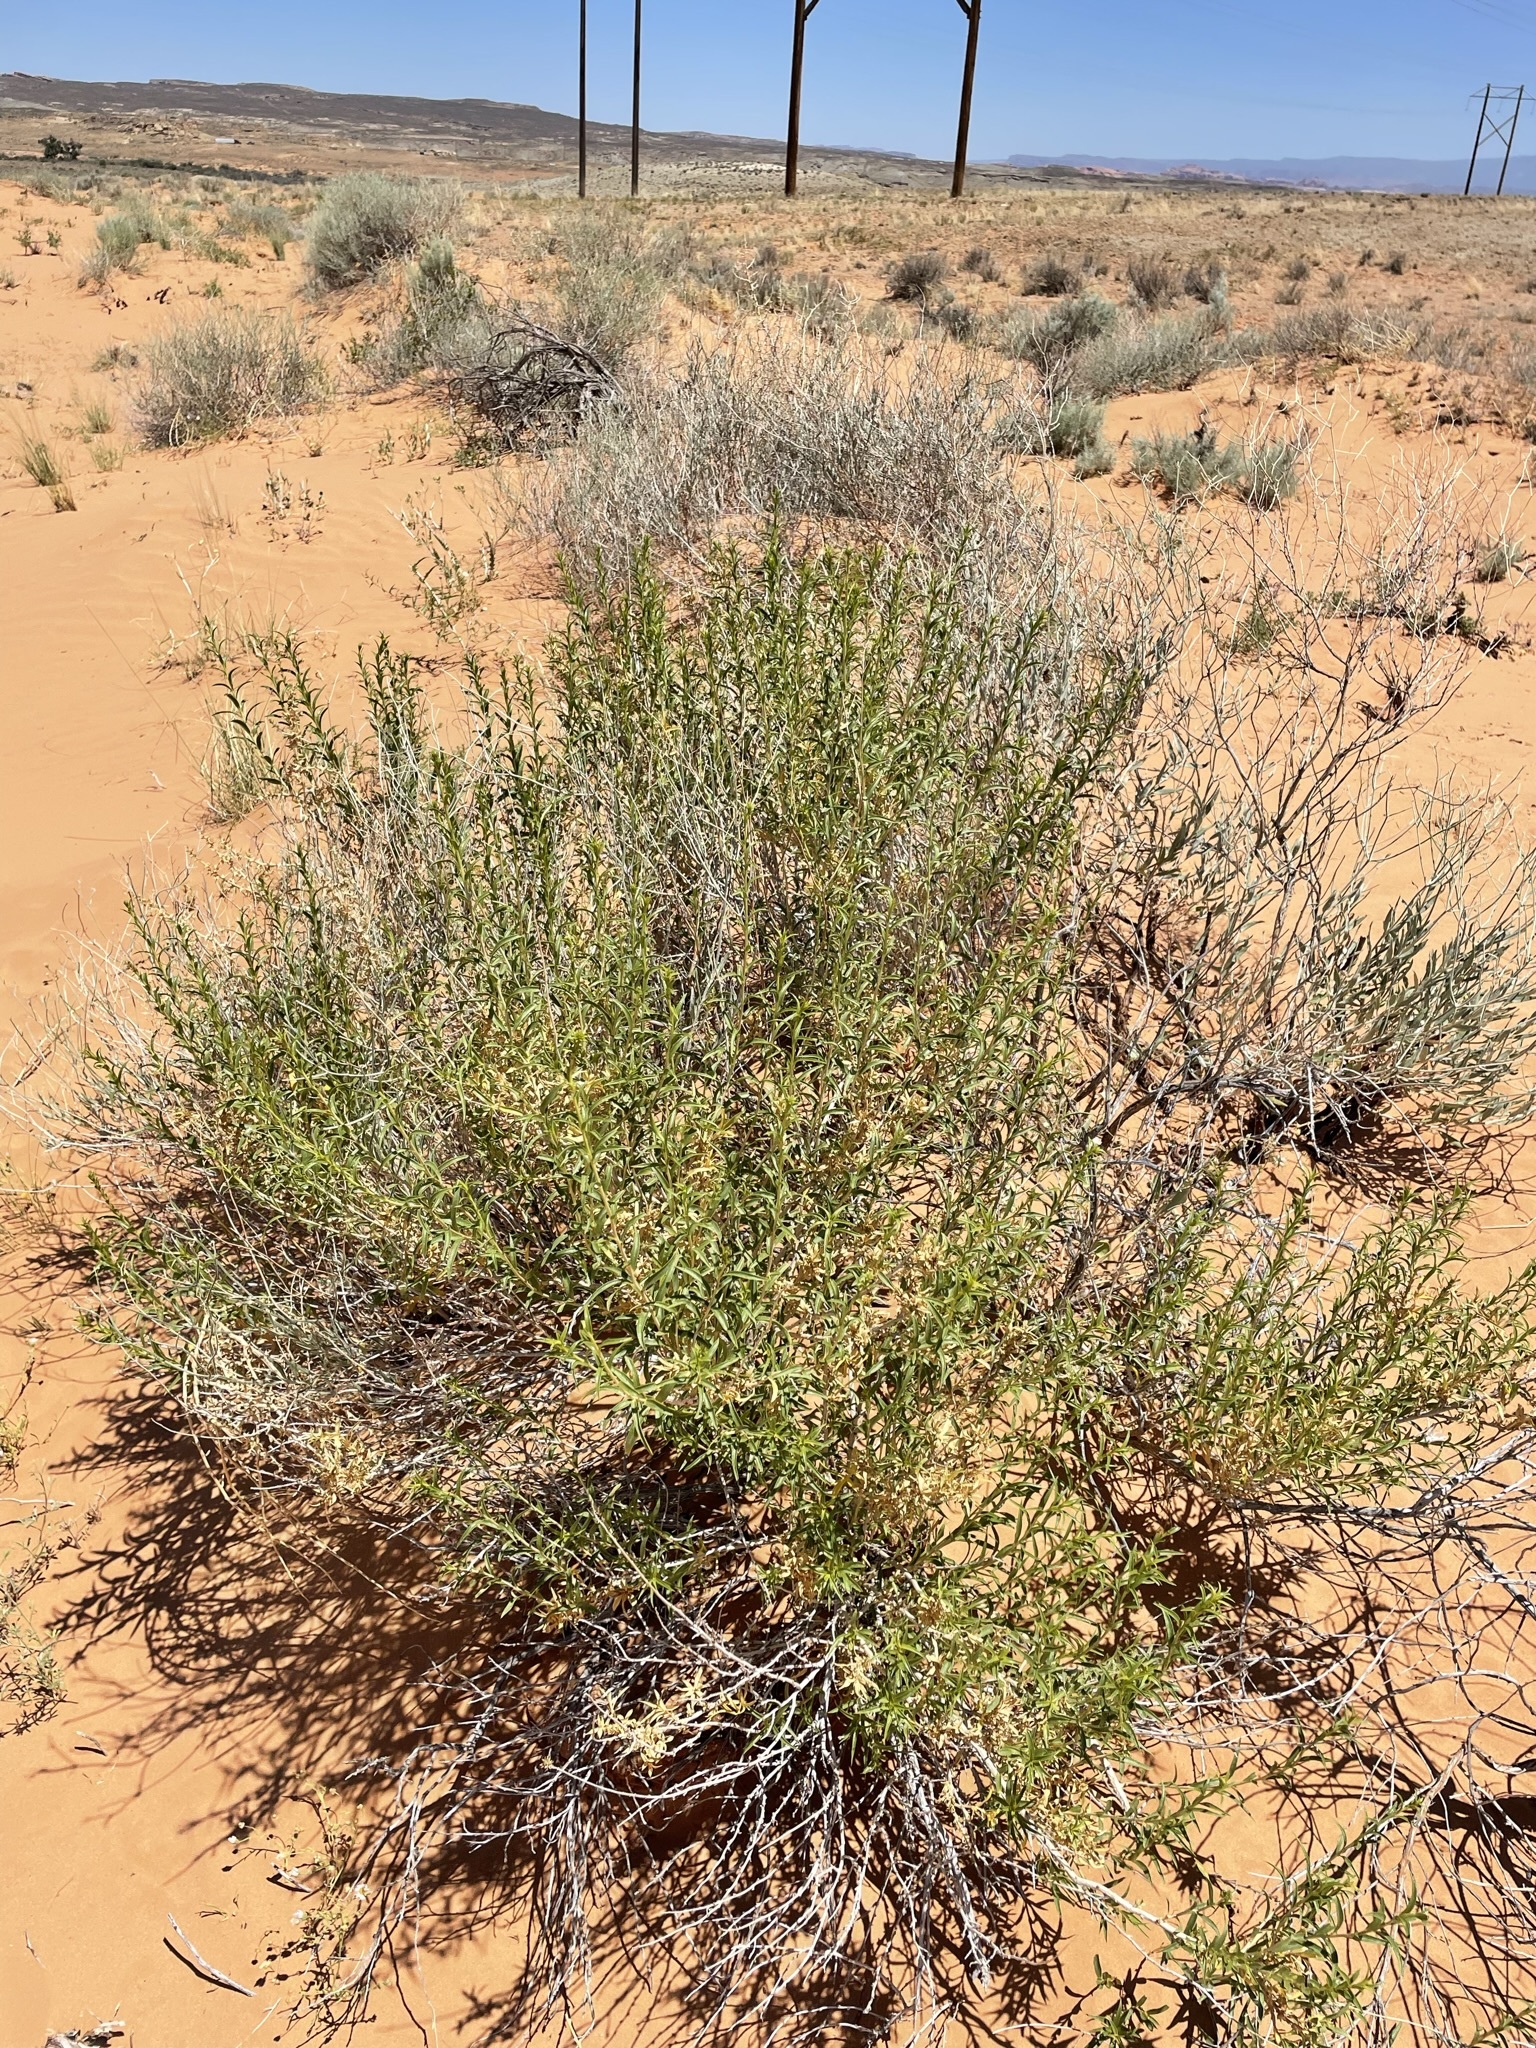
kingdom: Plantae
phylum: Tracheophyta
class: Magnoliopsida
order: Asterales
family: Asteraceae
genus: Chrysothamnus
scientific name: Chrysothamnus stylosus
